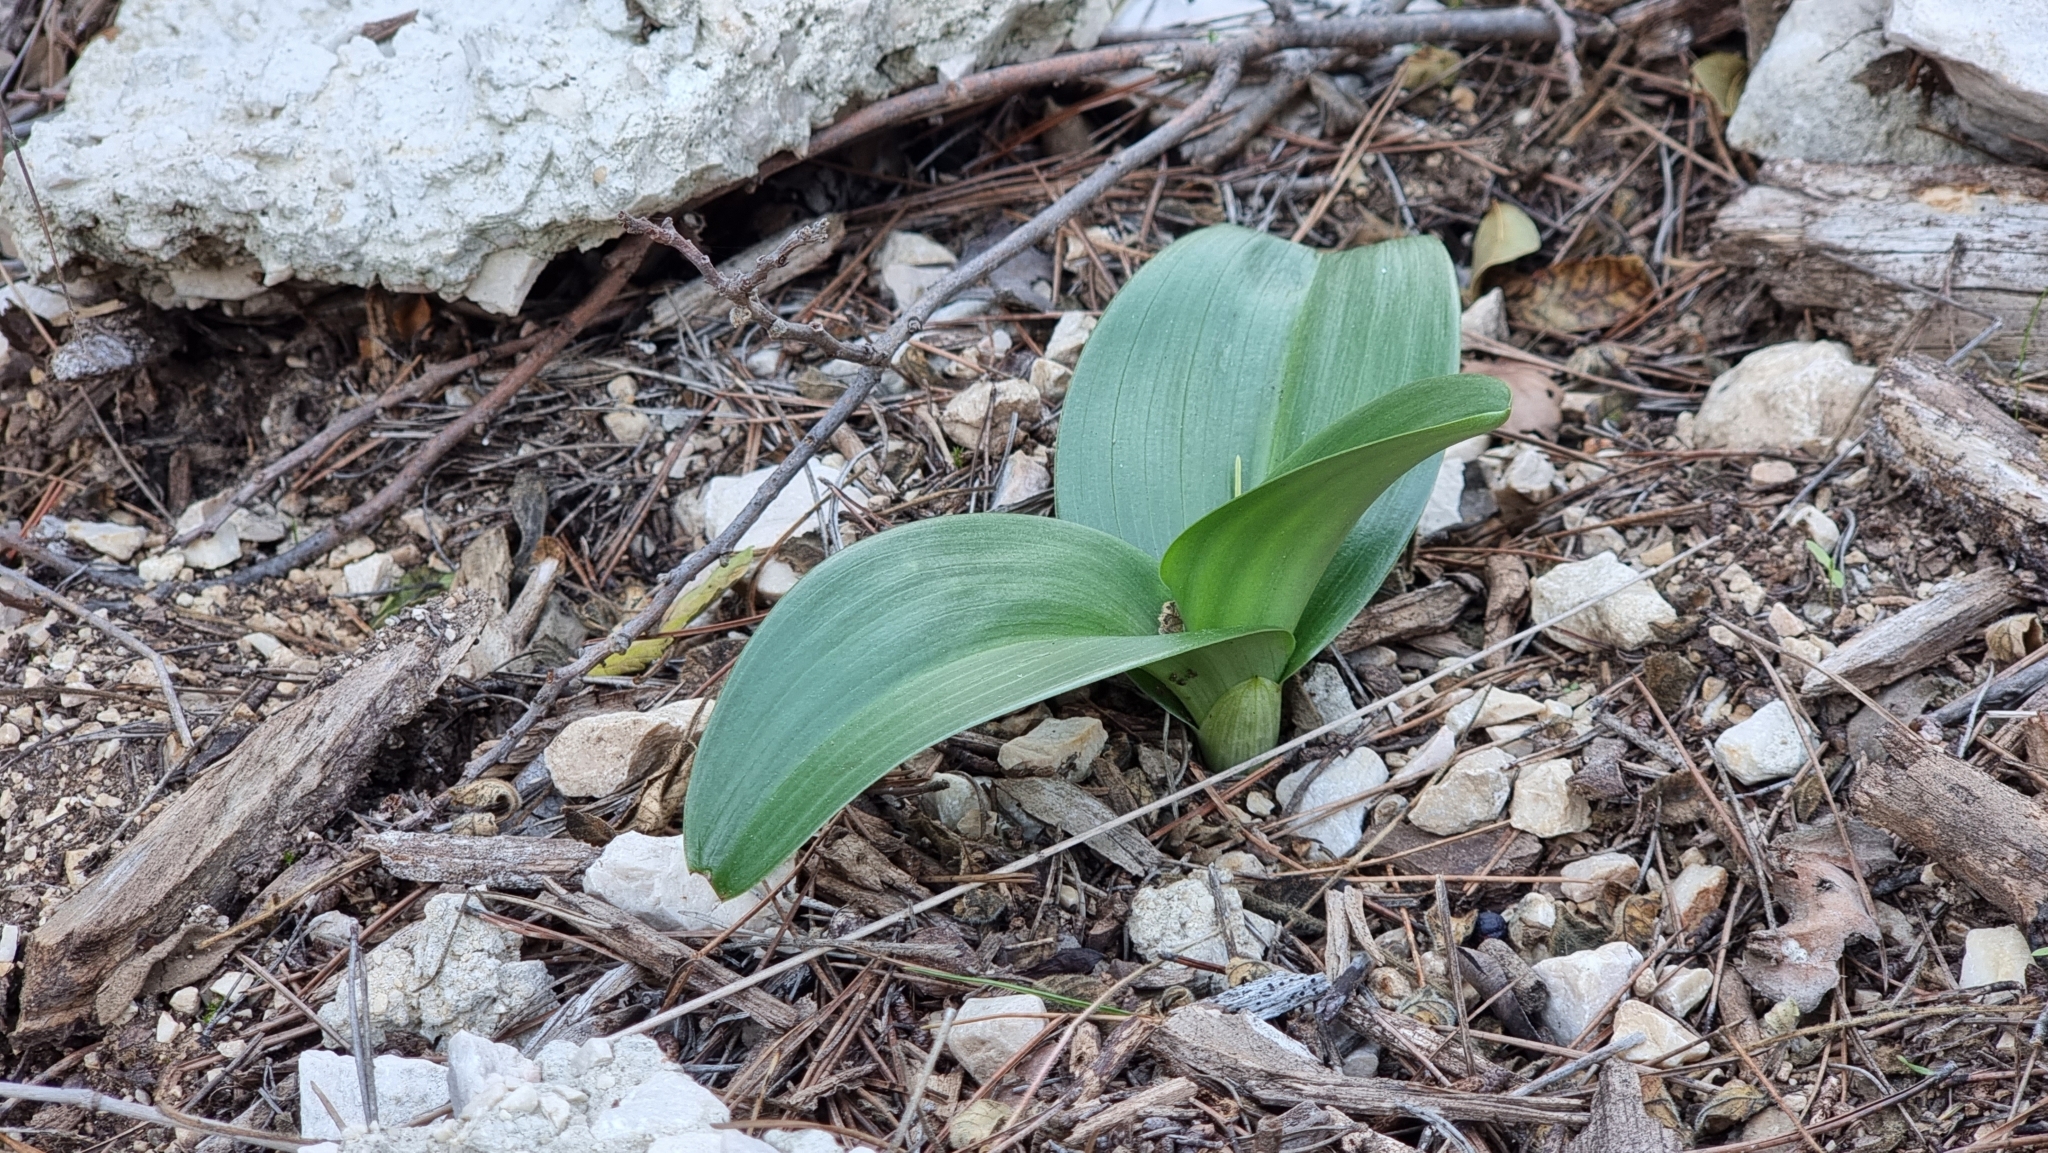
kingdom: Plantae
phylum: Tracheophyta
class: Liliopsida
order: Asparagales
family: Orchidaceae
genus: Himantoglossum
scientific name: Himantoglossum robertianum
